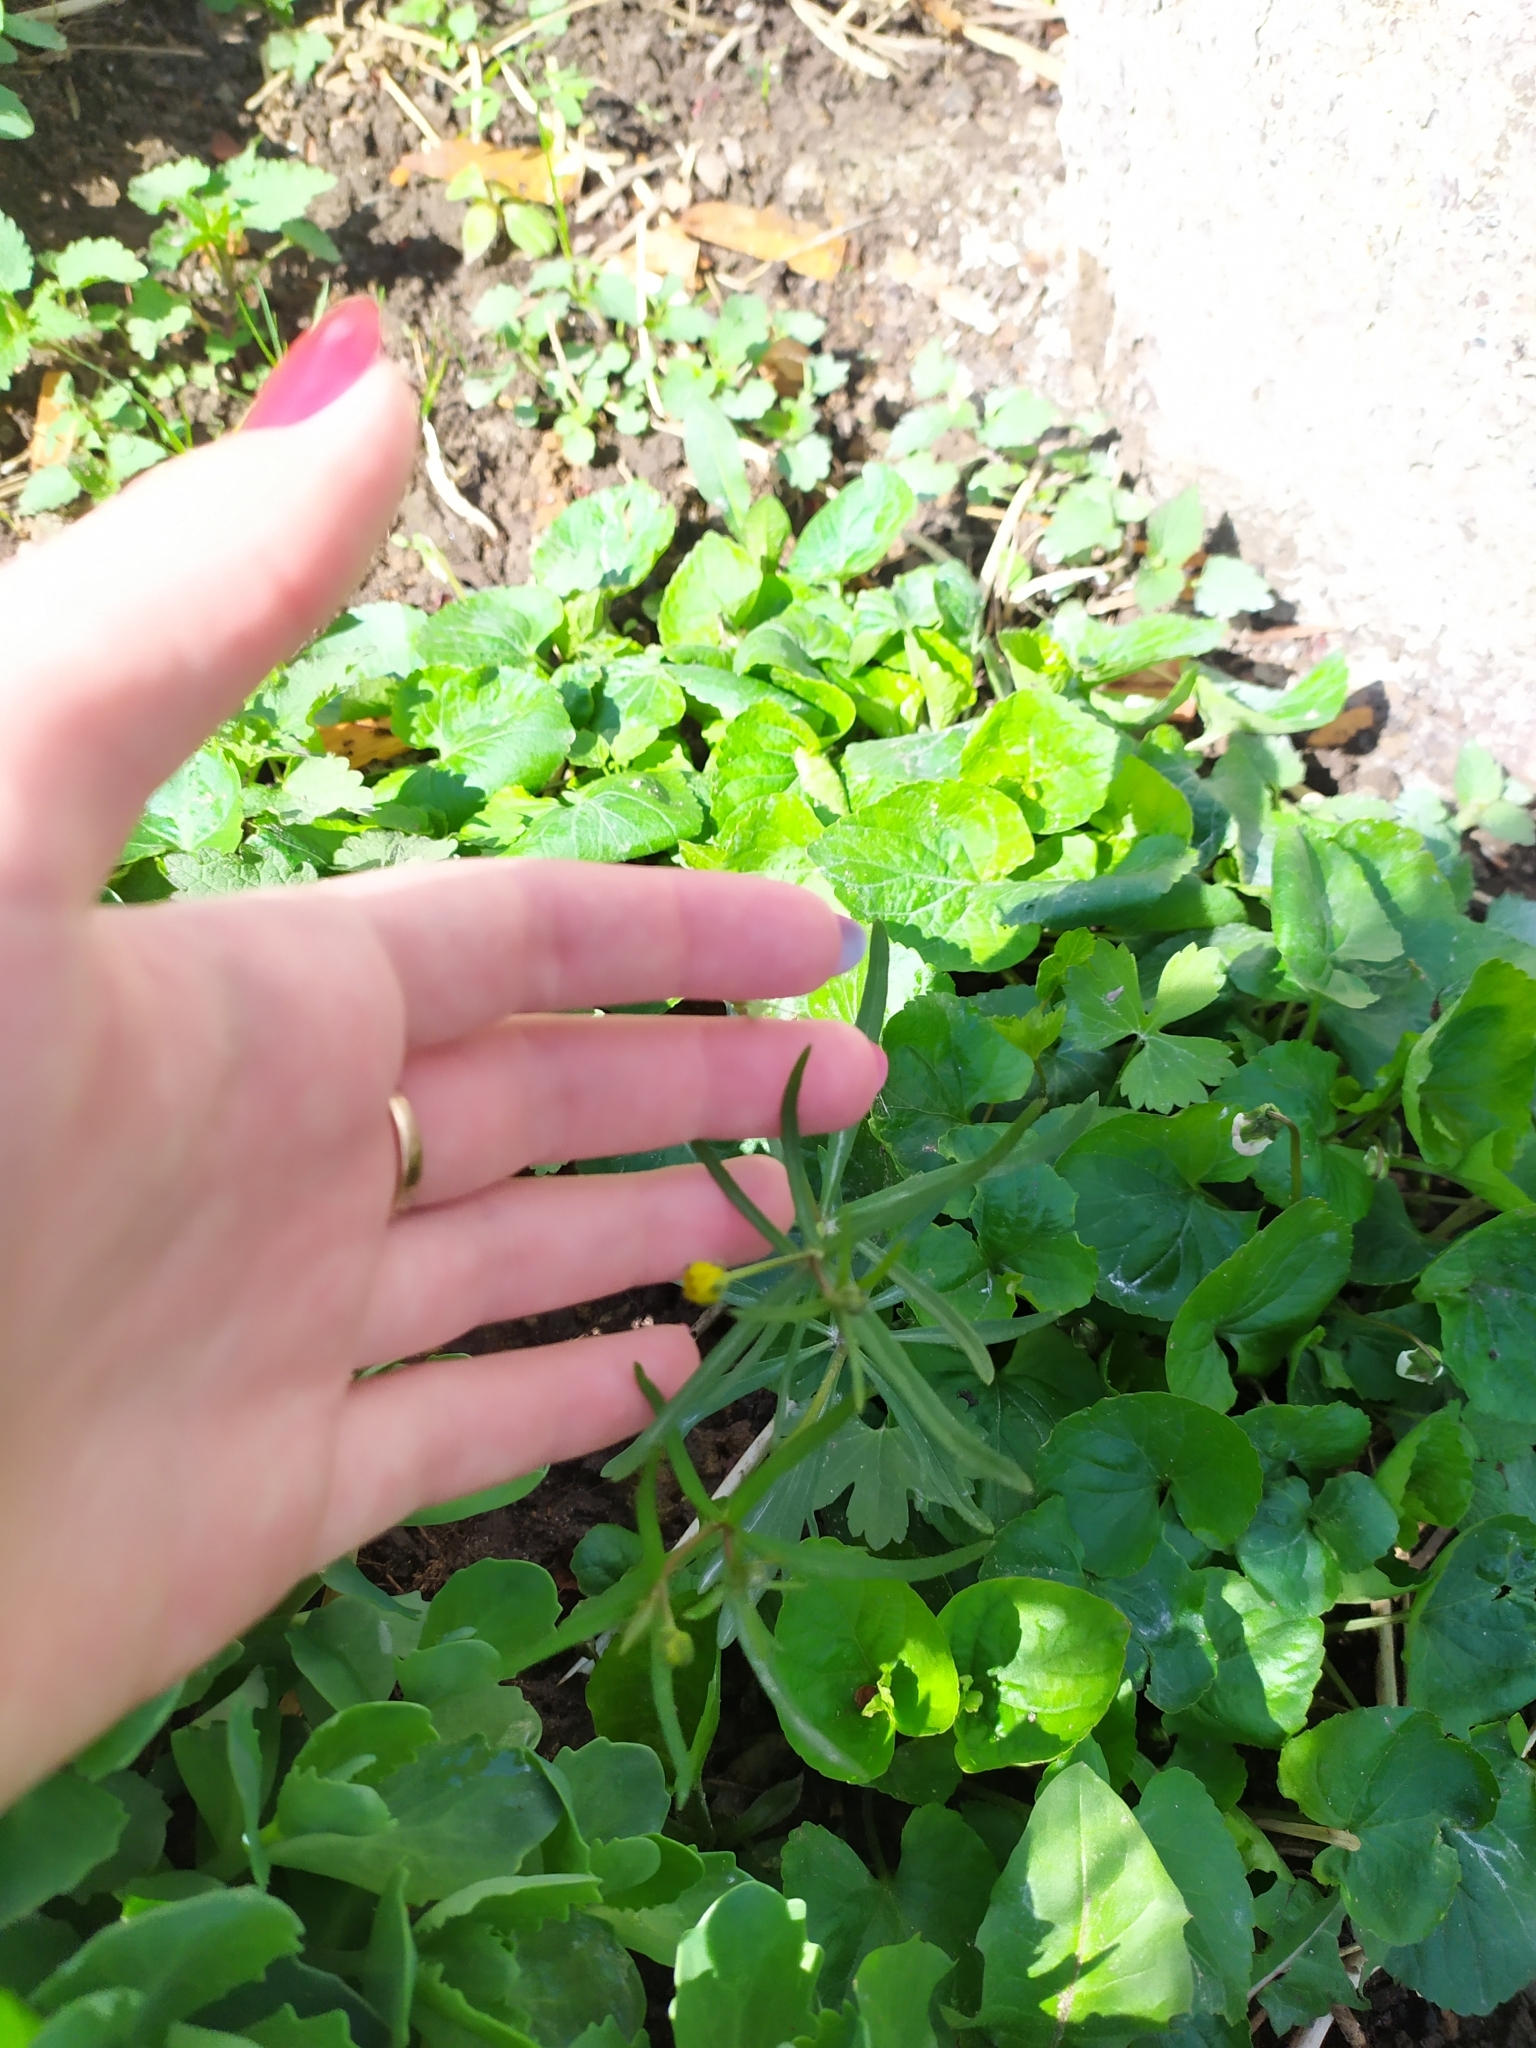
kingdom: Plantae
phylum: Tracheophyta
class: Magnoliopsida
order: Ranunculales
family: Ranunculaceae
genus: Ranunculus
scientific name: Ranunculus auricomus
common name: Goldilocks buttercup
